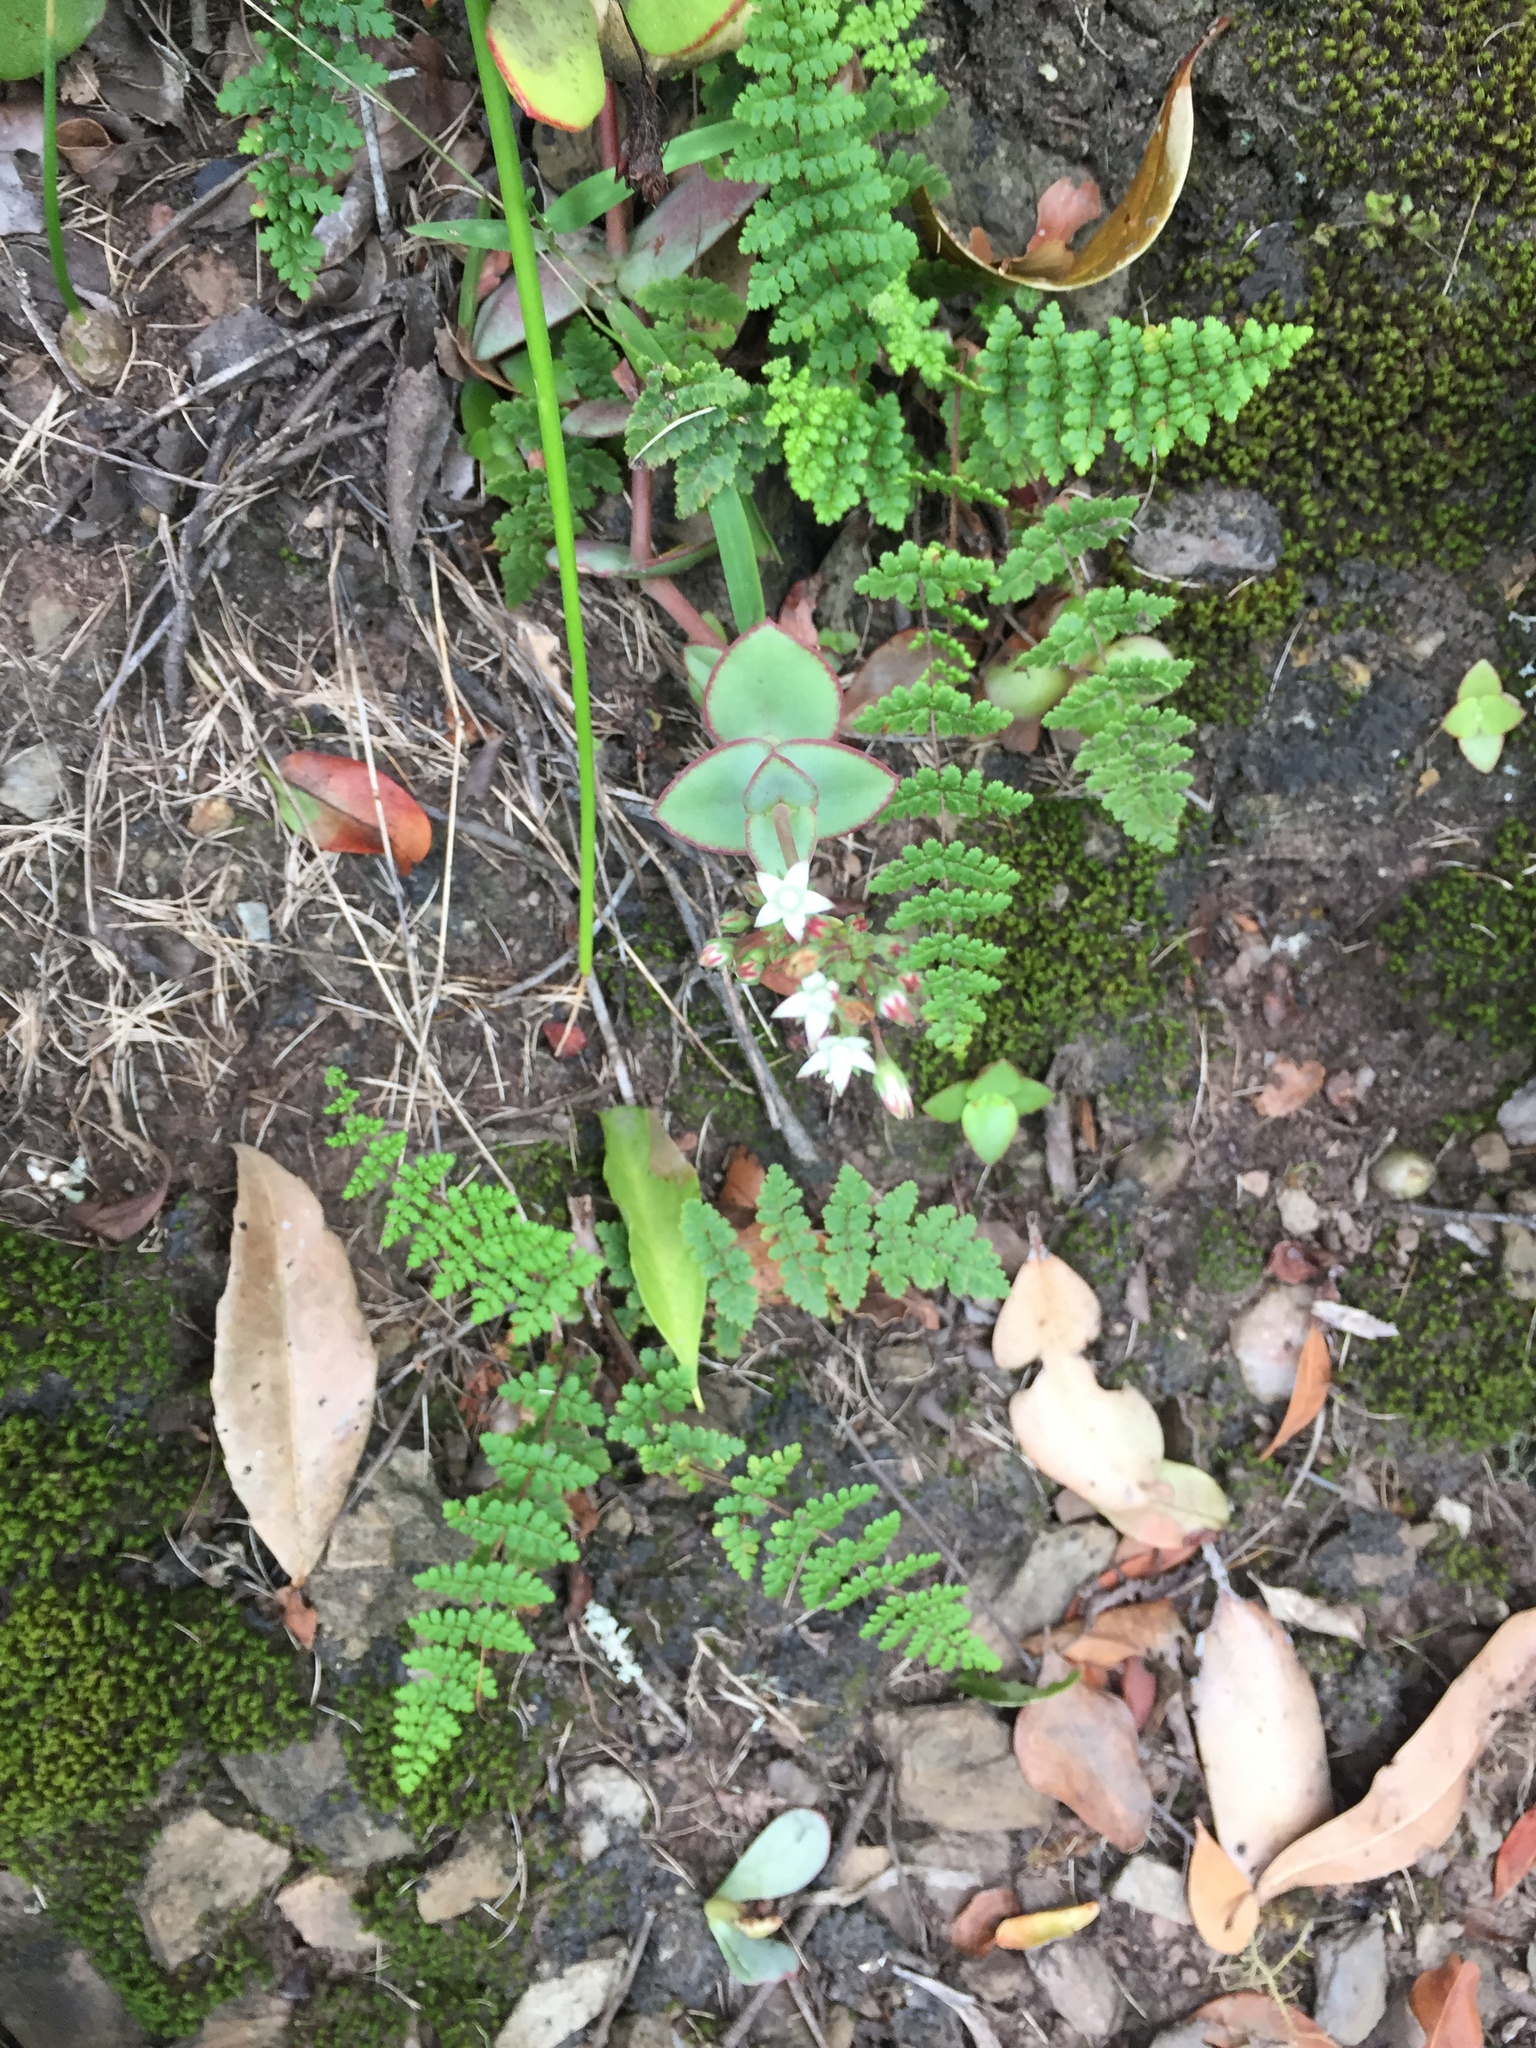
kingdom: Plantae
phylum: Tracheophyta
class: Magnoliopsida
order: Saxifragales
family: Crassulaceae
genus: Crassula
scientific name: Crassula pellucida
